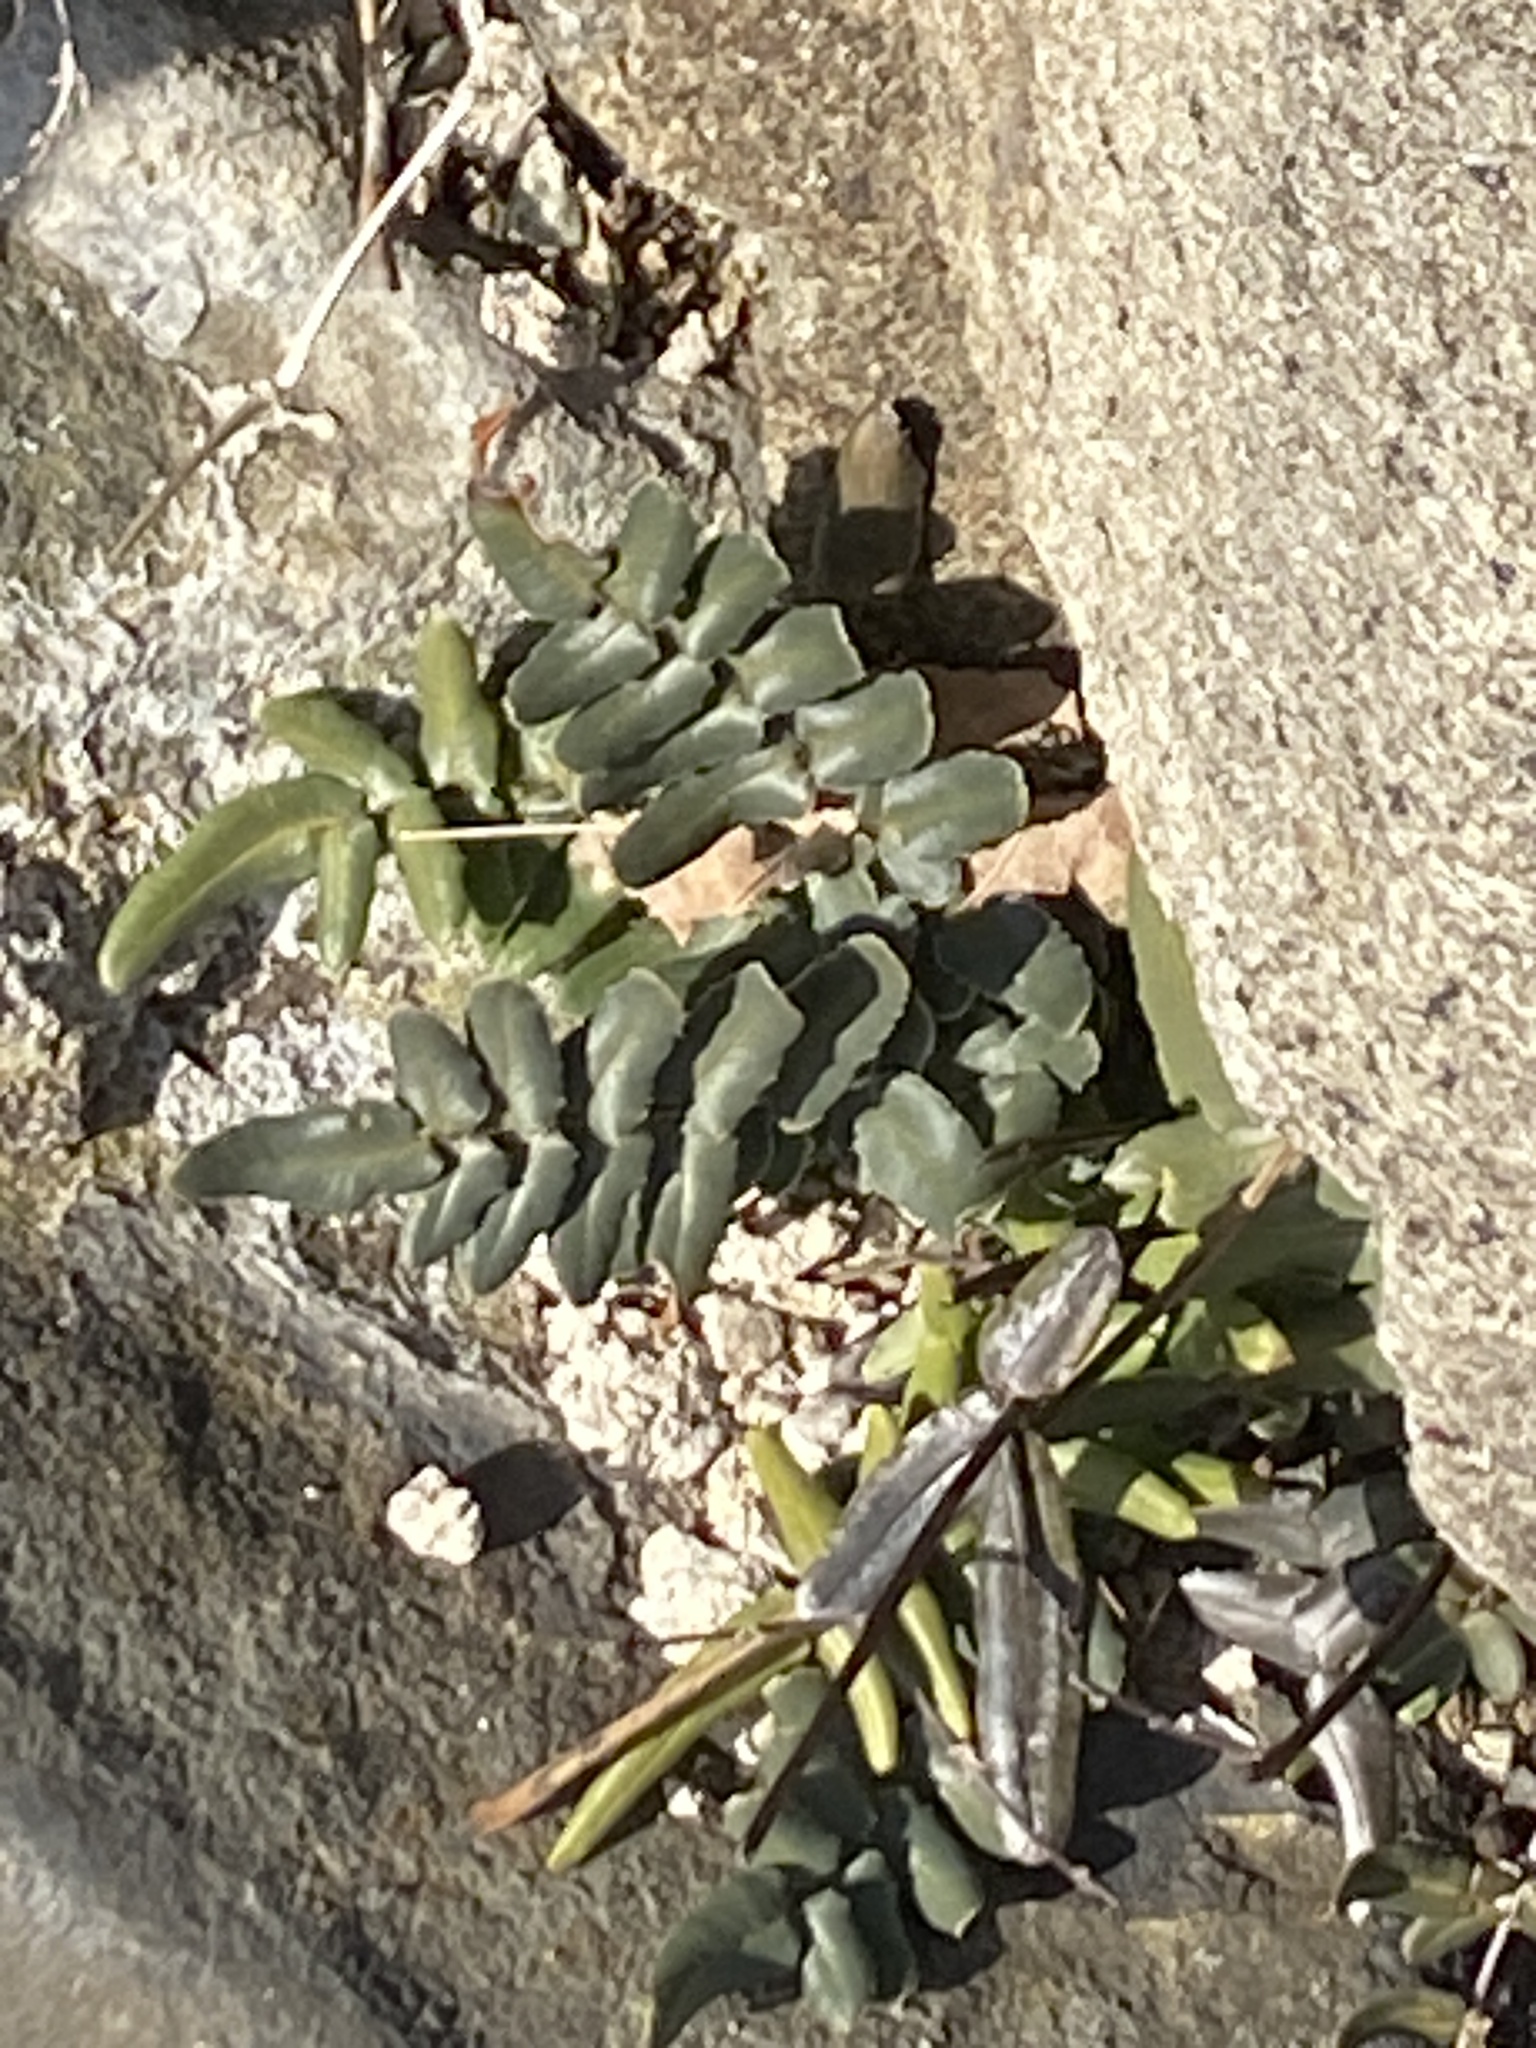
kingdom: Plantae
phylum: Tracheophyta
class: Polypodiopsida
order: Polypodiales
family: Pteridaceae
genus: Pellaea
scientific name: Pellaea atropurpurea
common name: Hairy cliffbrake
